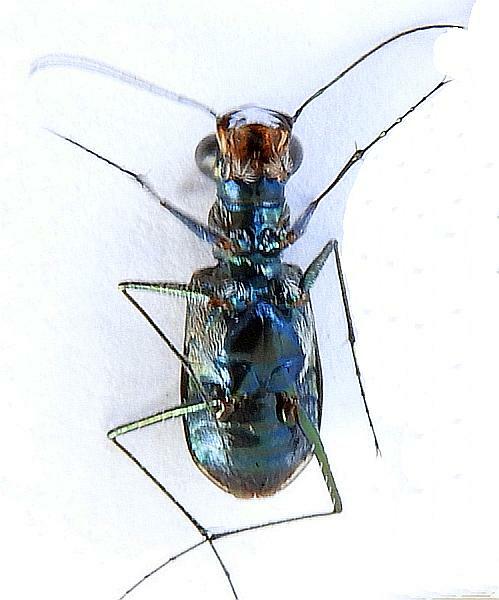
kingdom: Animalia
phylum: Arthropoda
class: Insecta
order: Coleoptera
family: Carabidae
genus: Cicindela
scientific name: Cicindela trifasciata
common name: Mudflat tiger beetle
